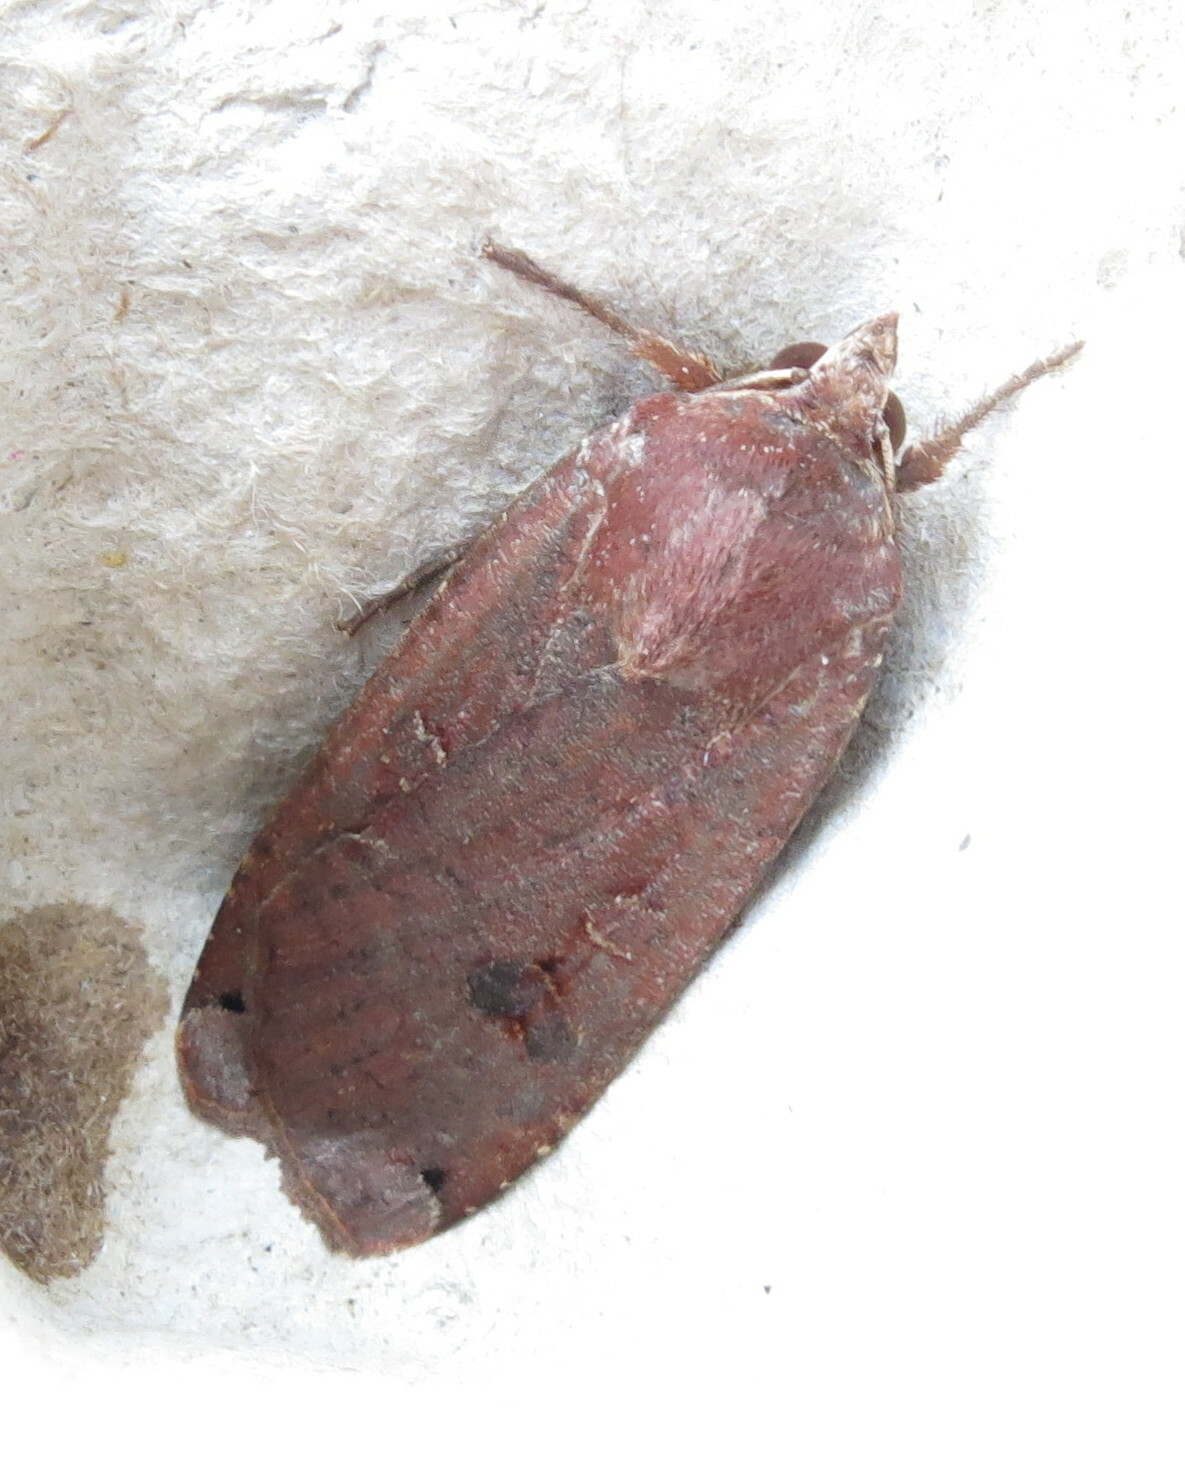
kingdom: Animalia
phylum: Arthropoda
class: Insecta
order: Lepidoptera
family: Noctuidae
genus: Noctua
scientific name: Noctua pronuba
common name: Large yellow underwing
